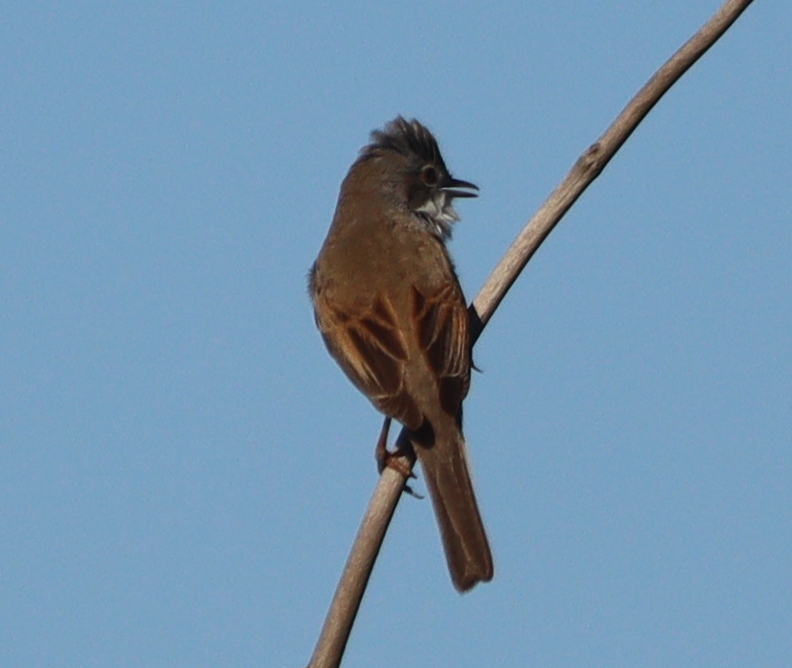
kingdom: Animalia
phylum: Chordata
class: Aves
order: Passeriformes
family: Sylviidae
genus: Sylvia
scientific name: Sylvia communis
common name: Common whitethroat
